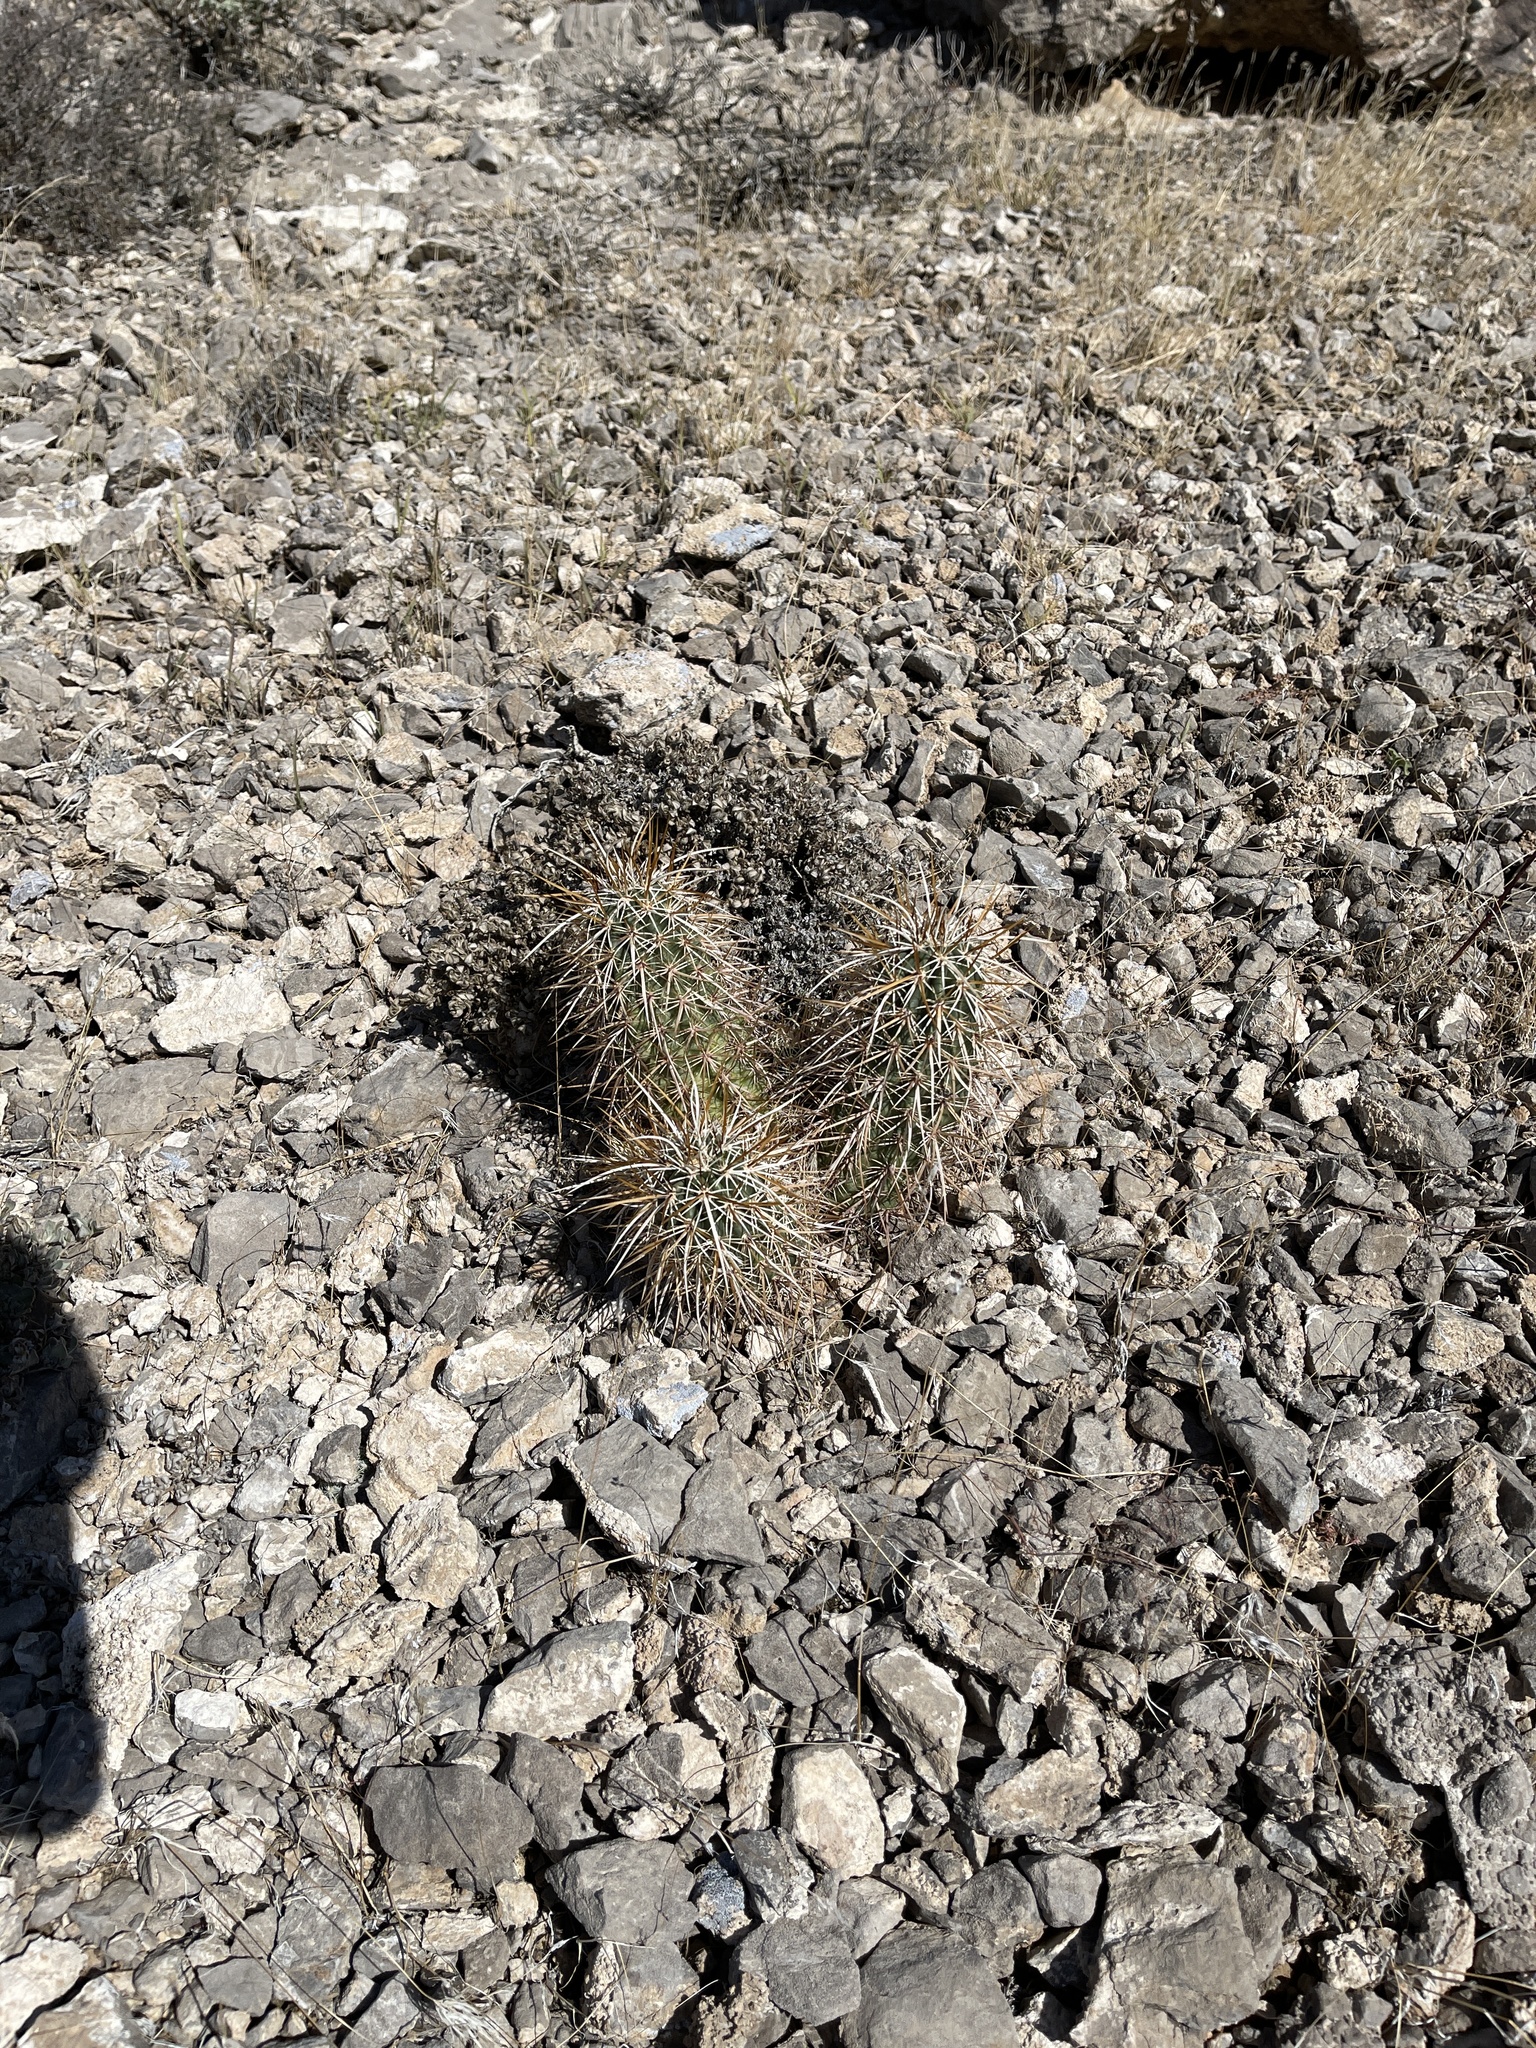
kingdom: Plantae
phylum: Tracheophyta
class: Magnoliopsida
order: Caryophyllales
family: Cactaceae
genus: Echinocereus
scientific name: Echinocereus engelmannii
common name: Engelmann's hedgehog cactus
